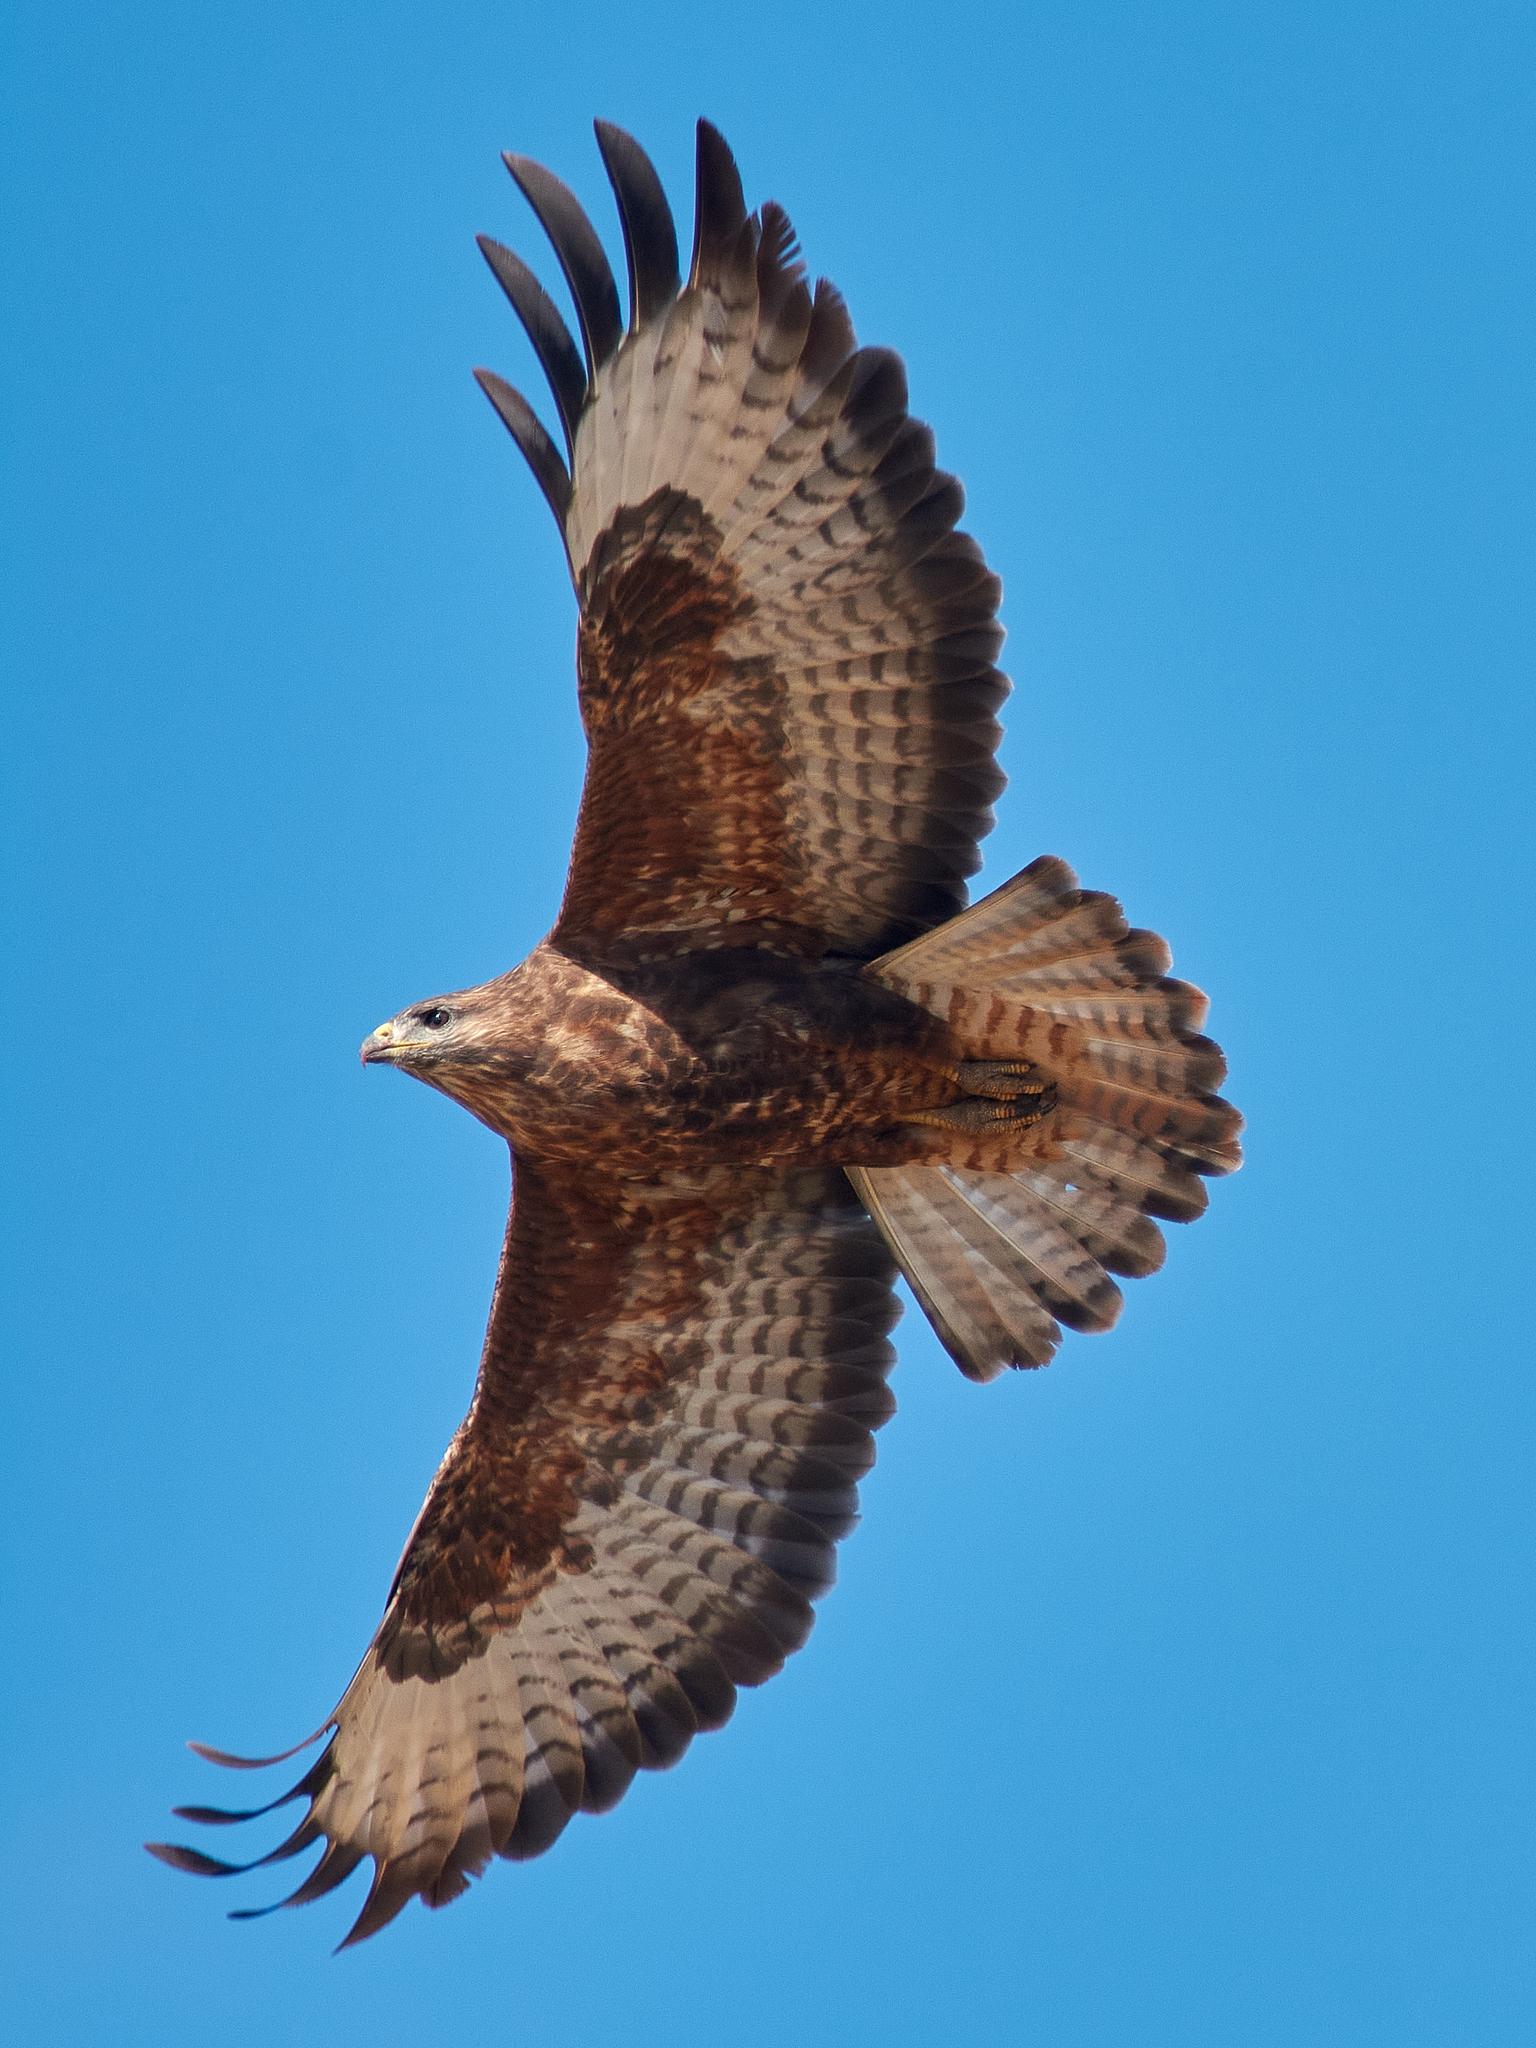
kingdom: Animalia
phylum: Chordata
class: Aves
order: Accipitriformes
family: Accipitridae
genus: Buteo
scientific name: Buteo buteo
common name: Common buzzard
